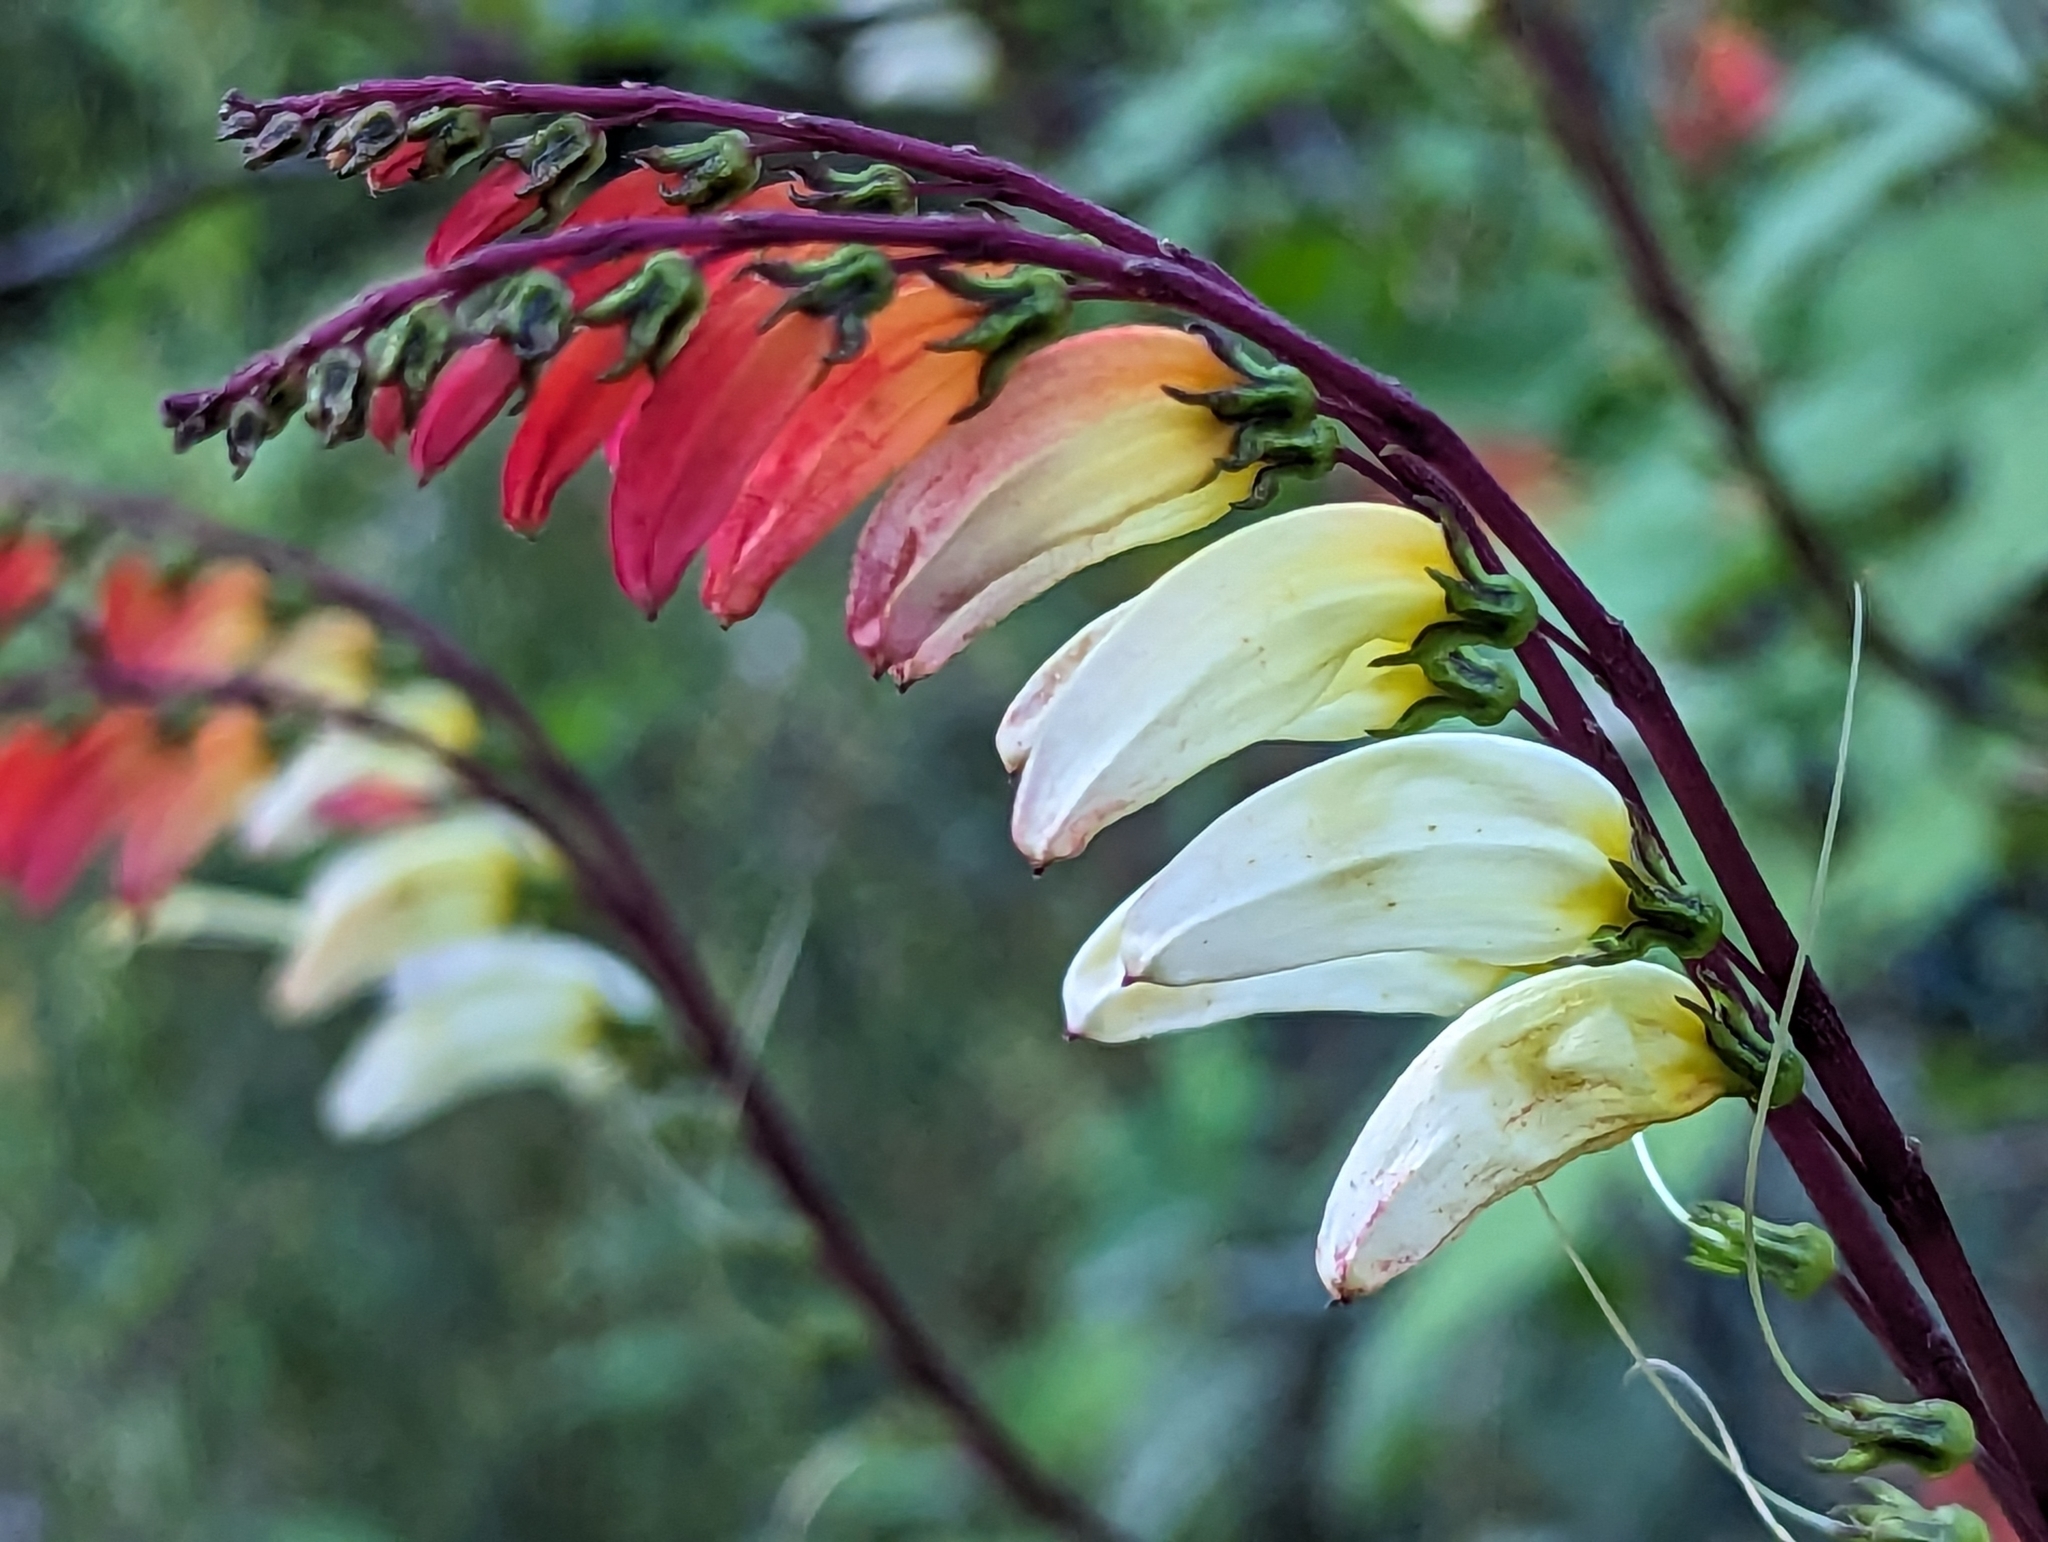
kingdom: Plantae
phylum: Tracheophyta
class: Magnoliopsida
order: Solanales
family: Convolvulaceae
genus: Ipomoea
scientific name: Ipomoea lobata
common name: Spanish-flag
